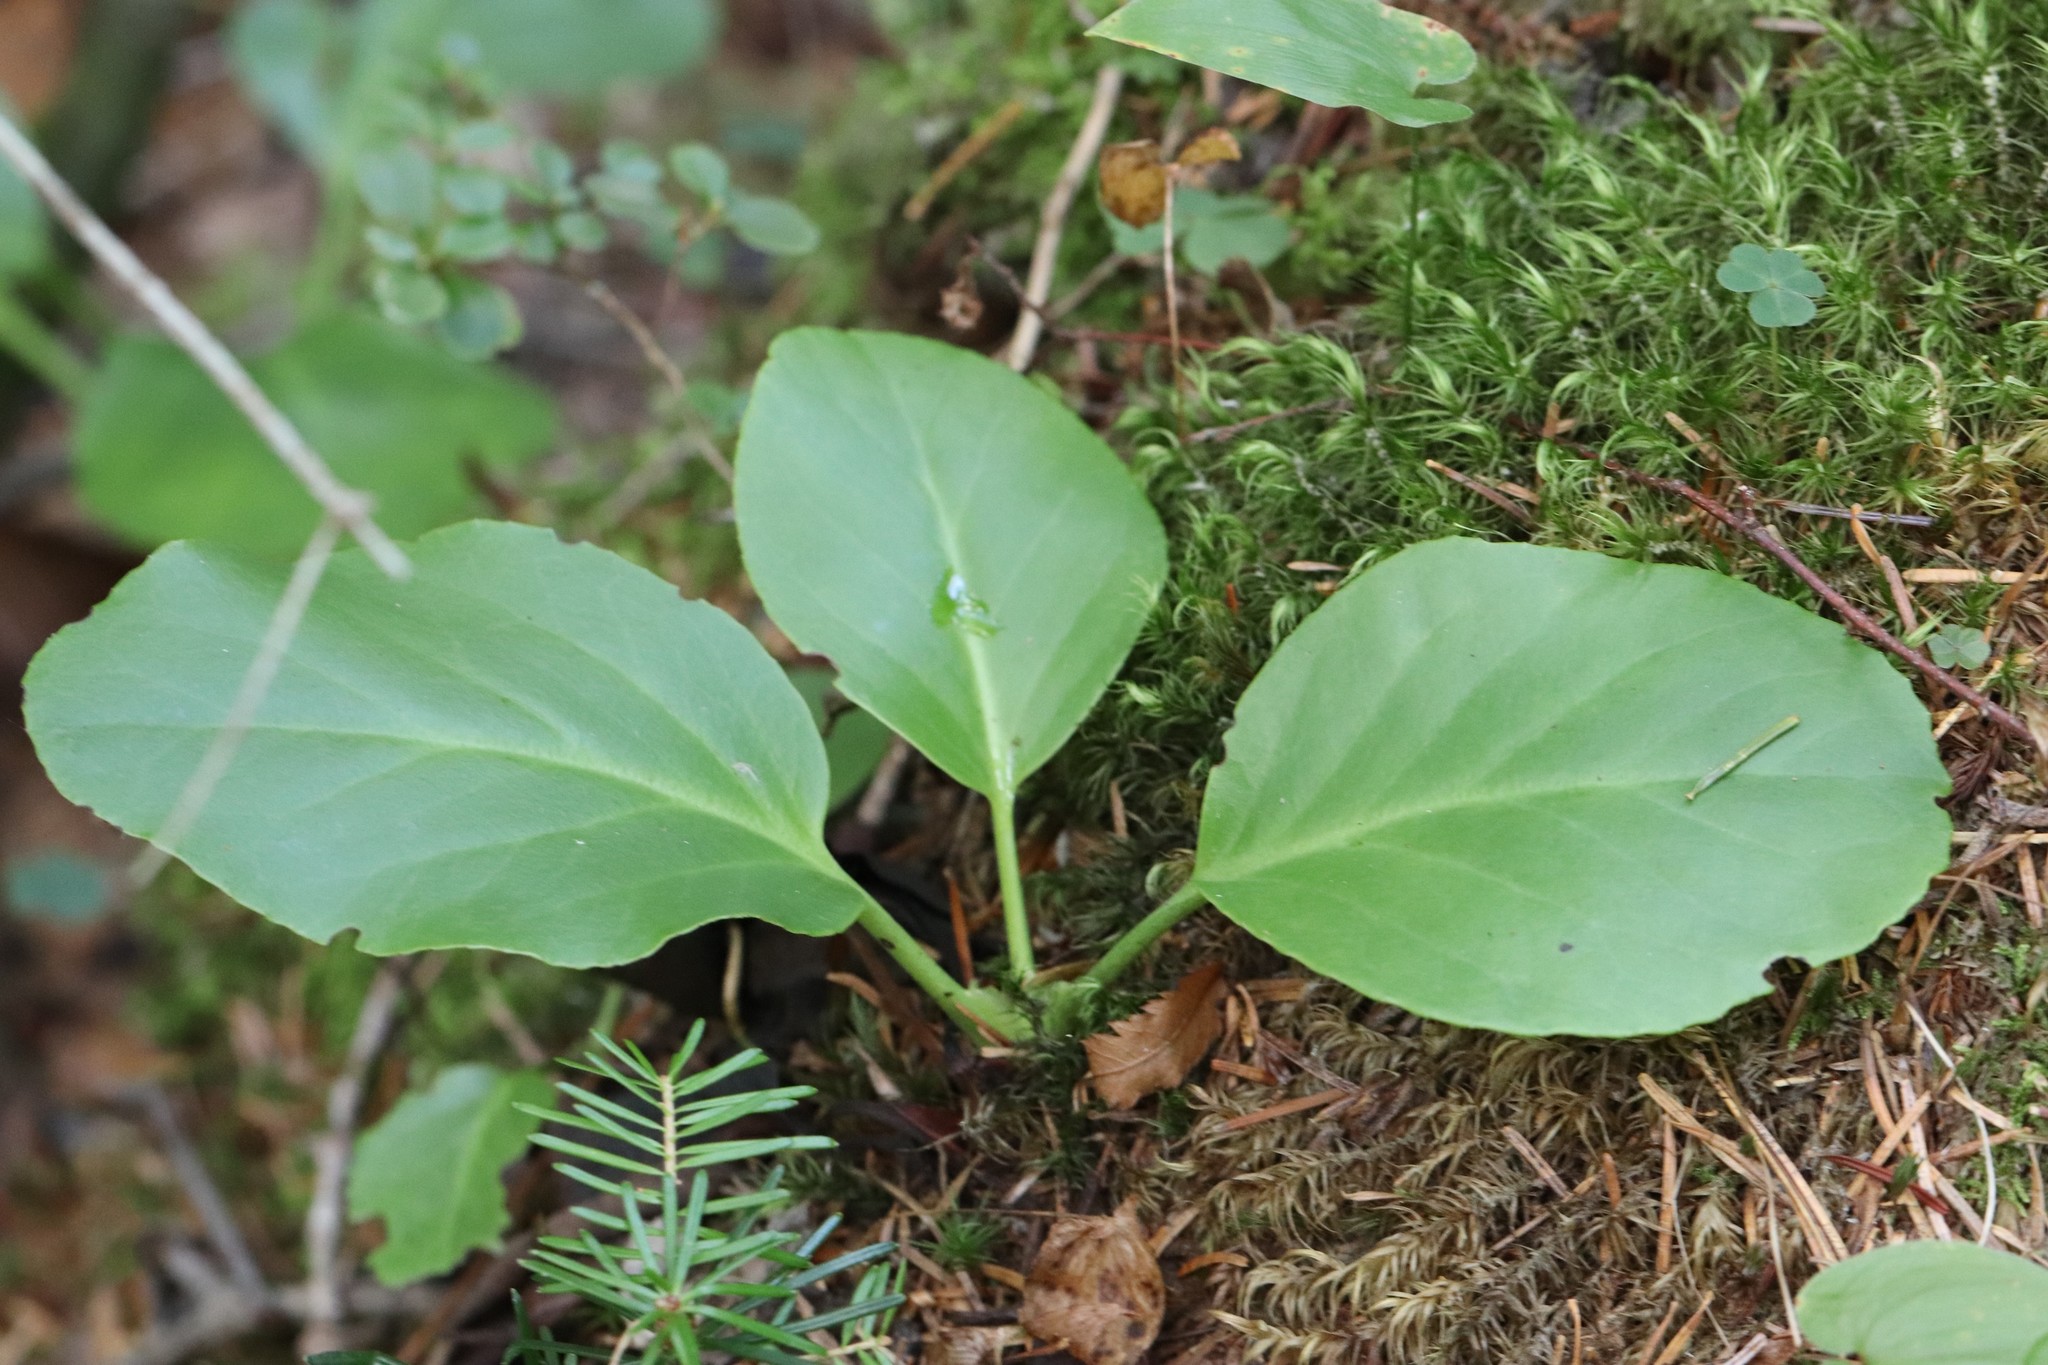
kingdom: Plantae
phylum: Tracheophyta
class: Magnoliopsida
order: Saxifragales
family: Saxifragaceae
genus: Bergenia
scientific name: Bergenia crassifolia
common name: Elephant-ears
